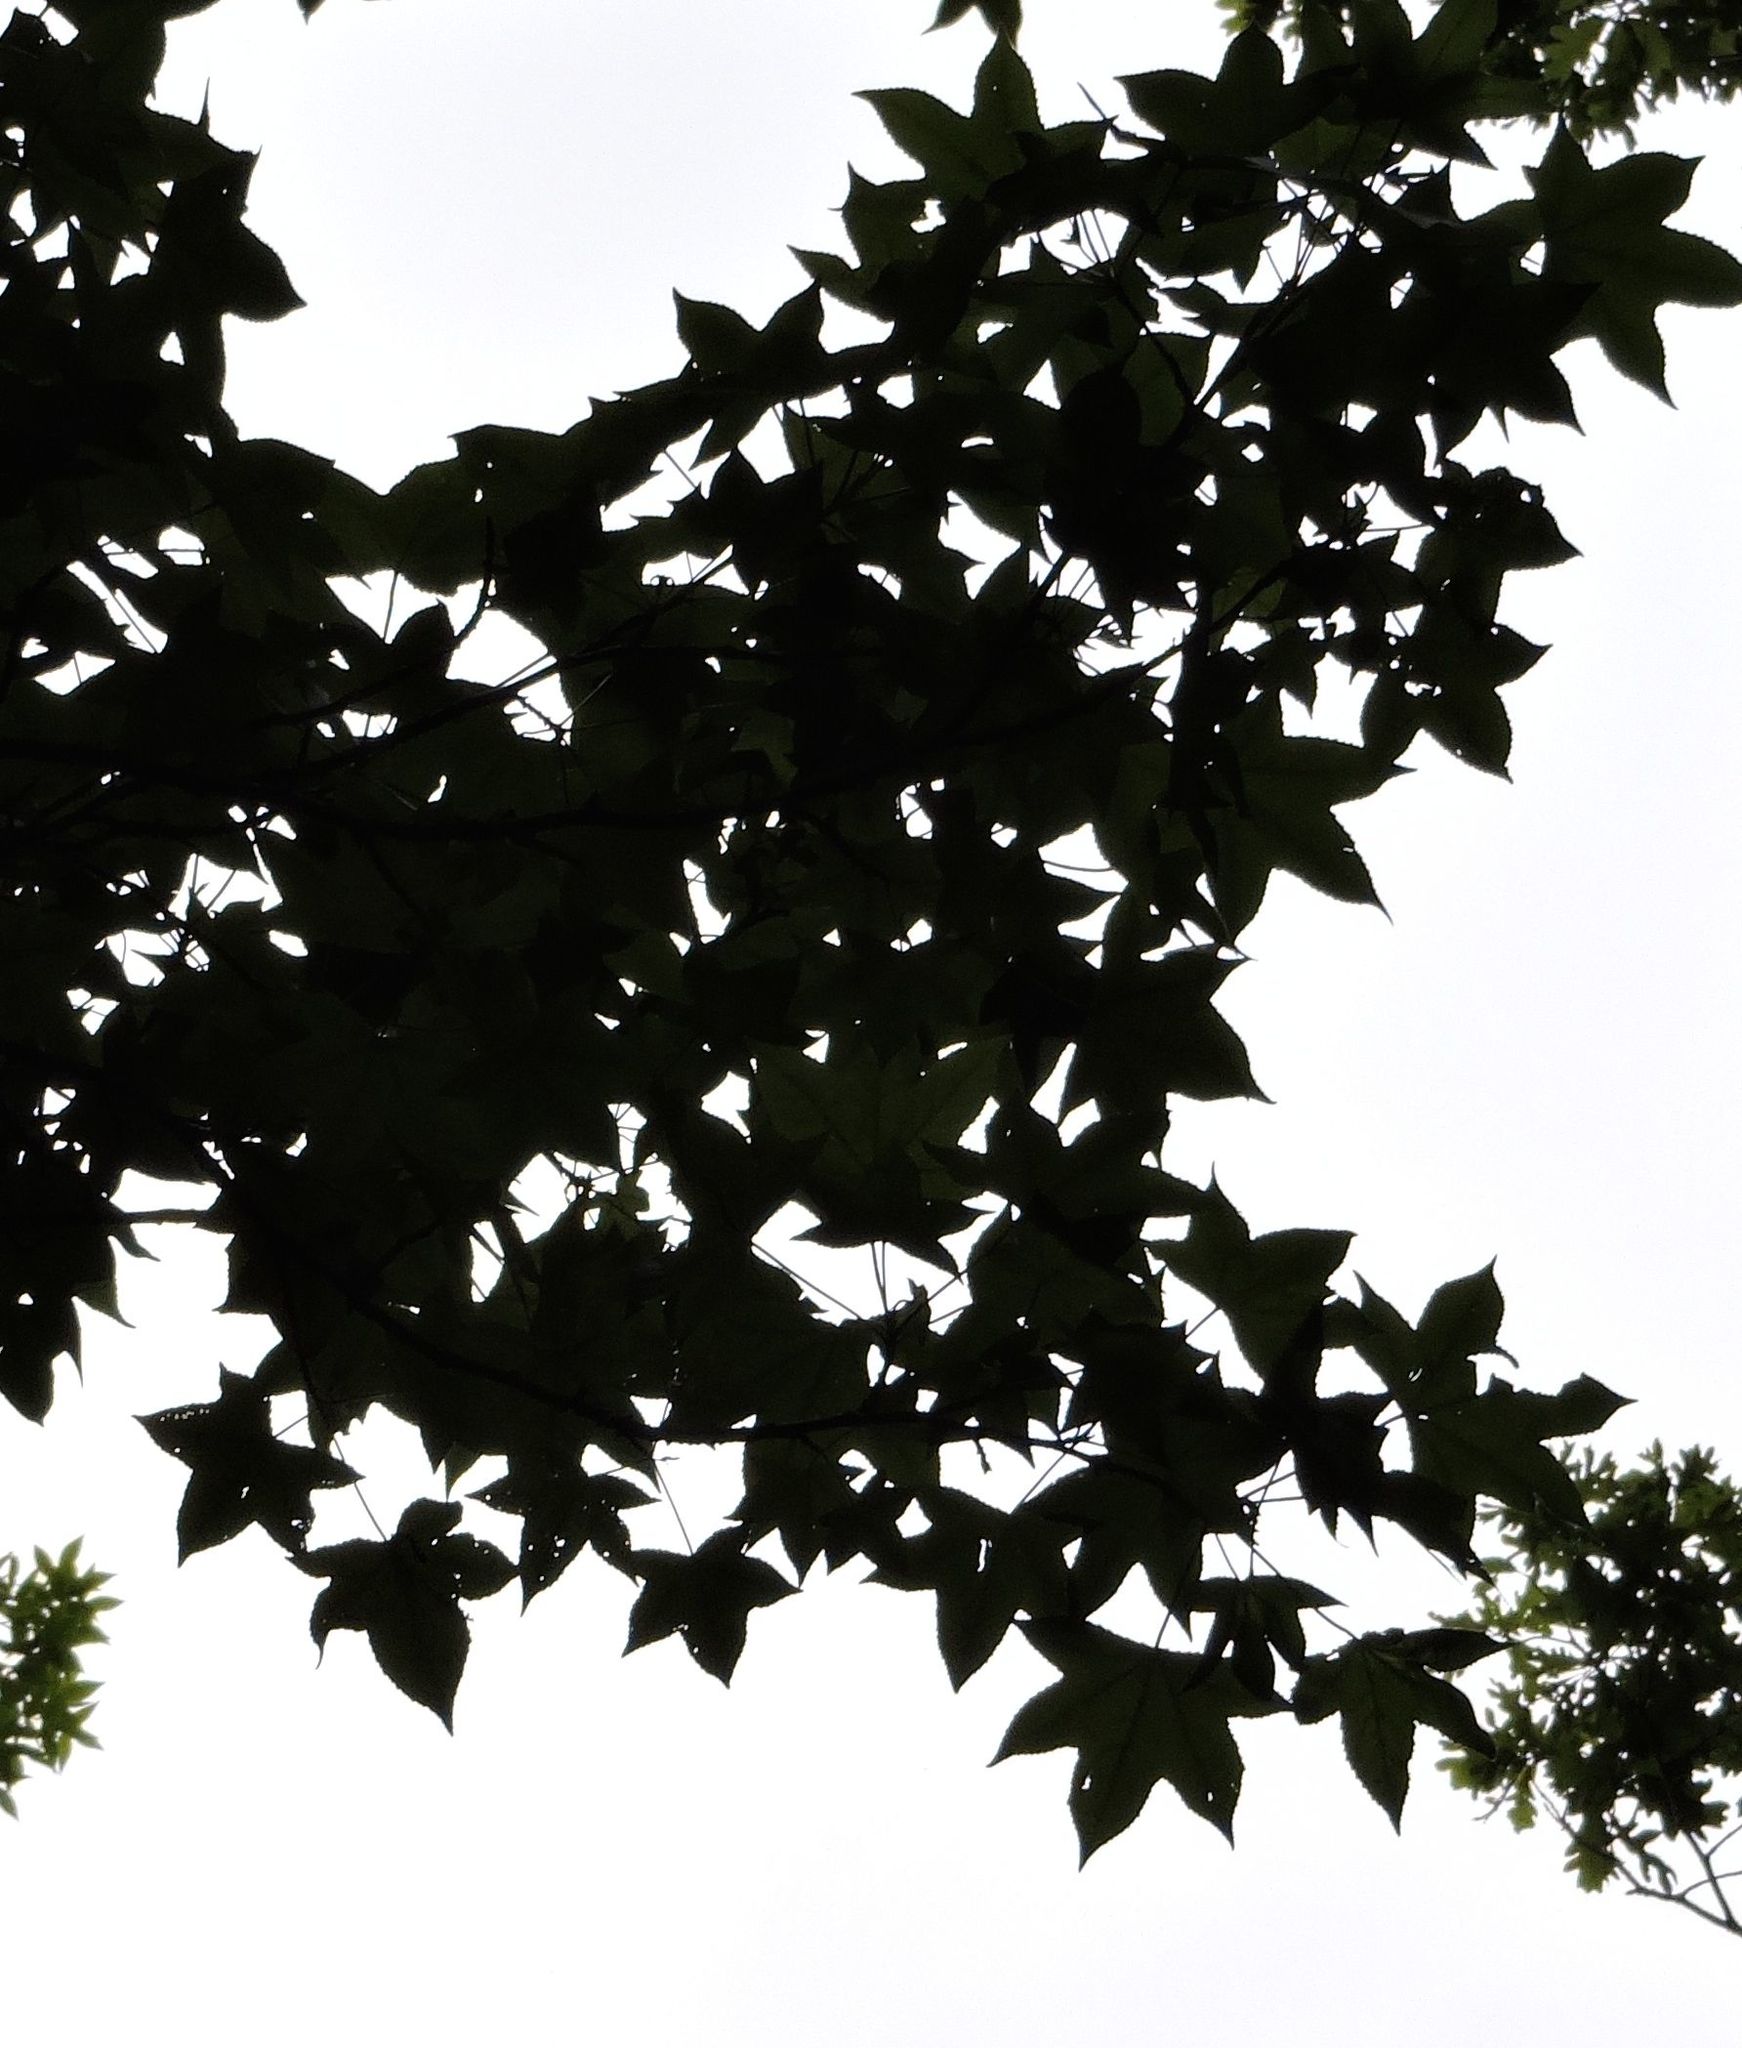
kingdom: Plantae
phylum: Tracheophyta
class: Magnoliopsida
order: Saxifragales
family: Altingiaceae
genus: Liquidambar
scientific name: Liquidambar styraciflua
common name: Sweet gum
